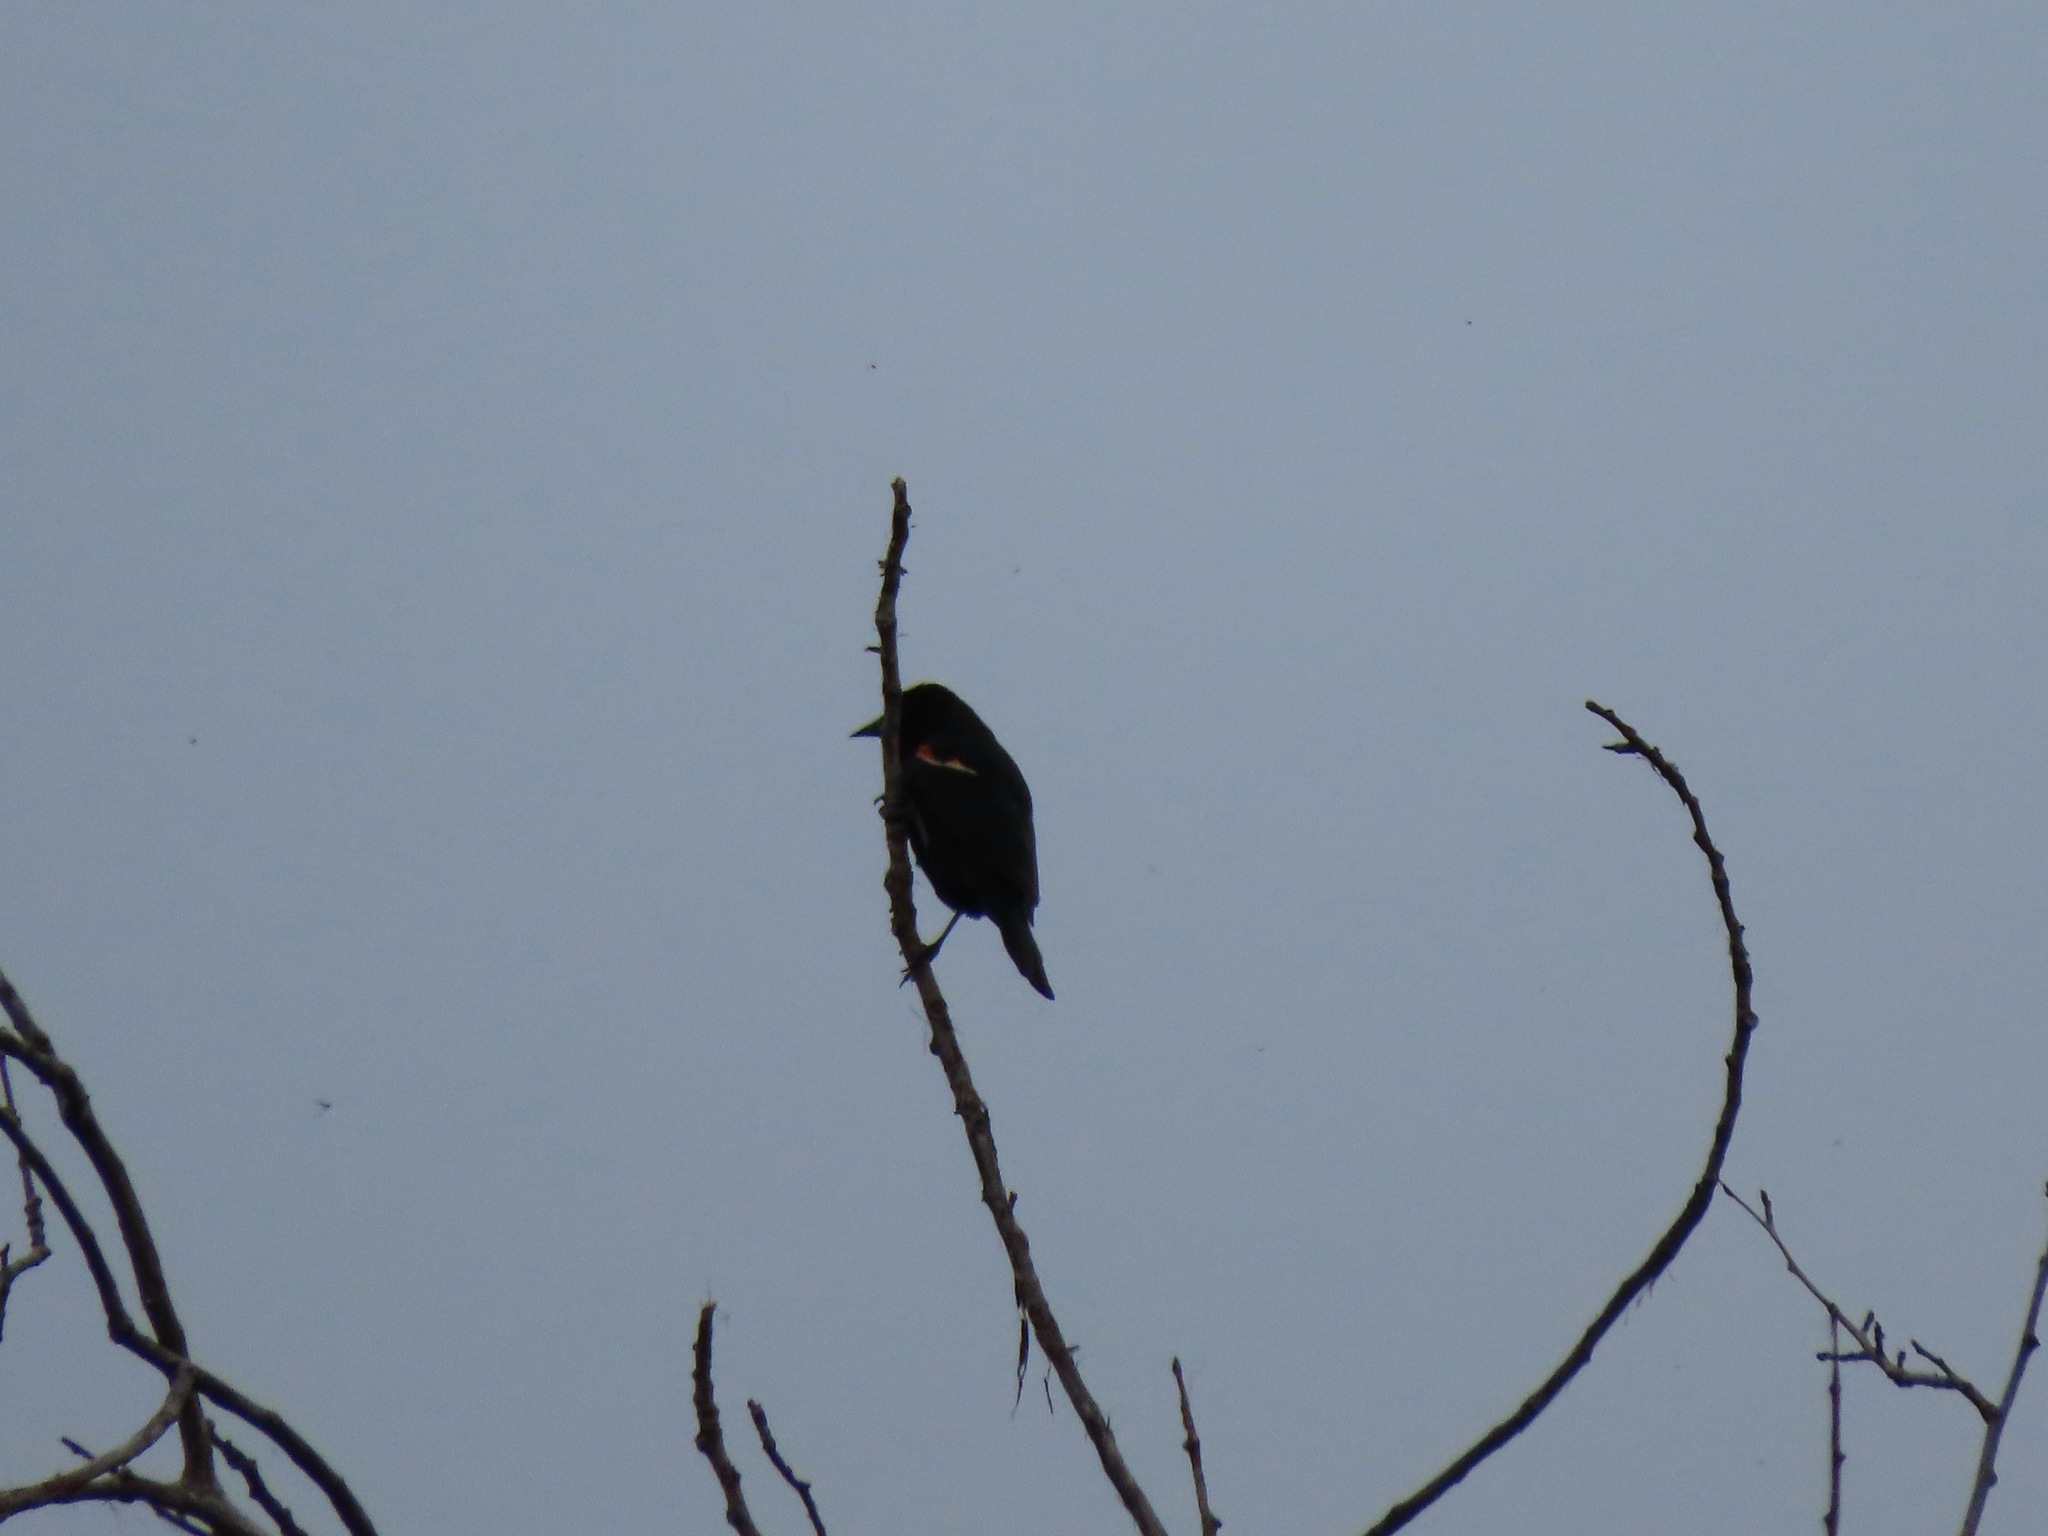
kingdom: Animalia
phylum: Chordata
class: Aves
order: Passeriformes
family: Icteridae
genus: Agelaius
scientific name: Agelaius phoeniceus
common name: Red-winged blackbird
